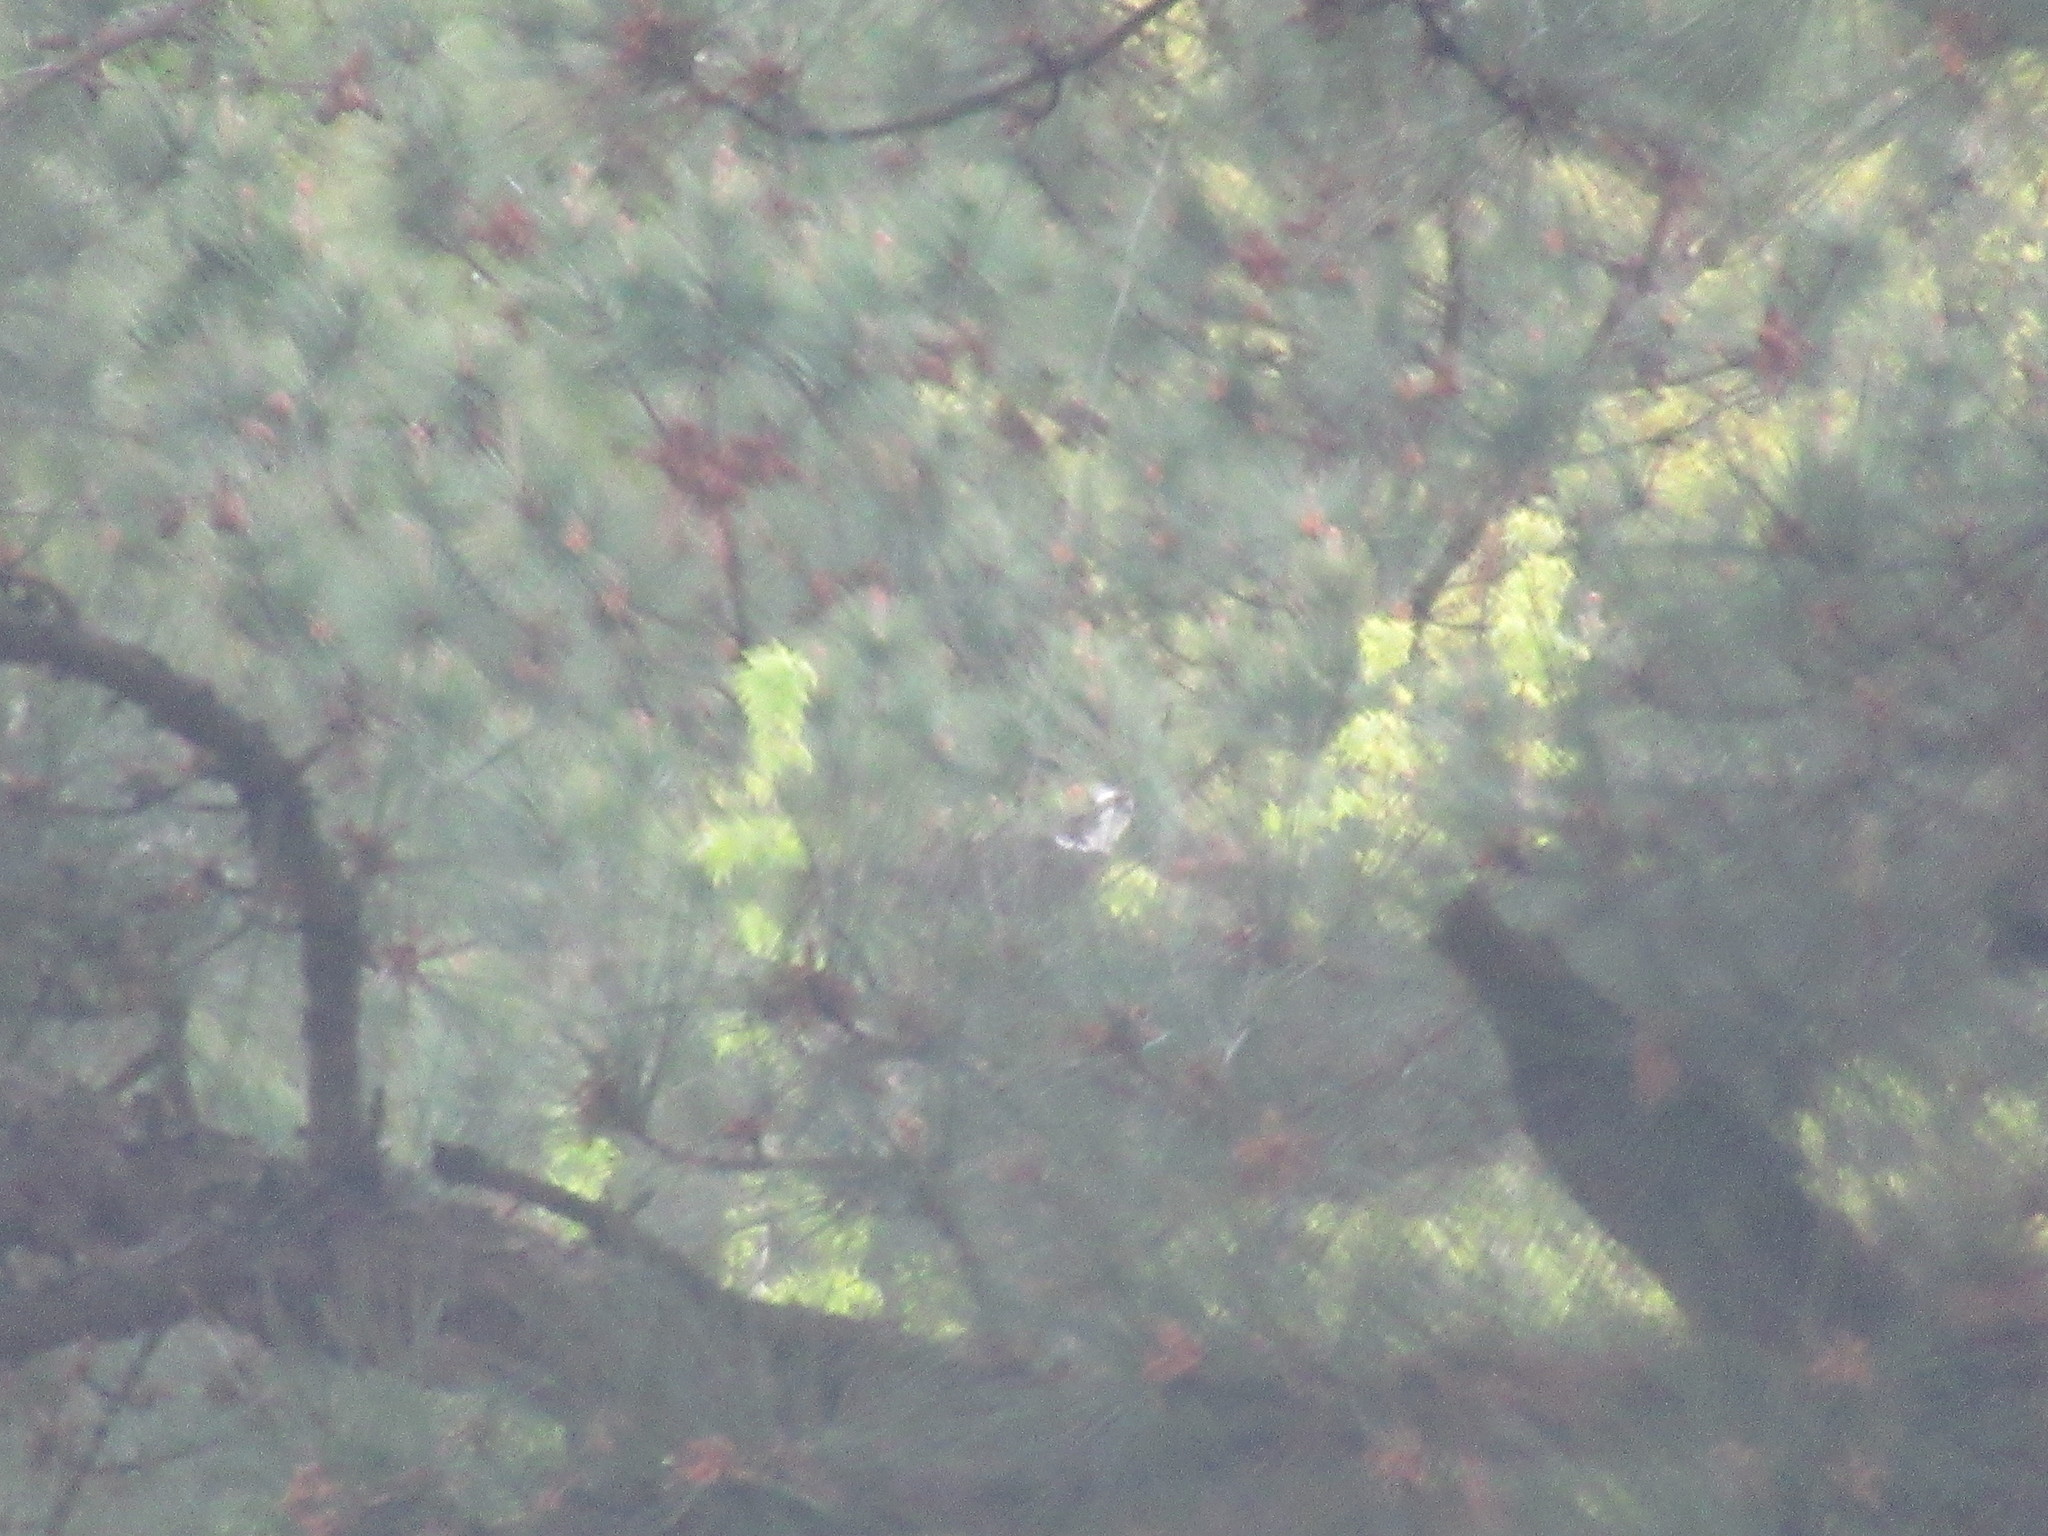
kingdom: Animalia
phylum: Chordata
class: Aves
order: Accipitriformes
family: Pandionidae
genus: Pandion
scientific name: Pandion haliaetus
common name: Osprey
